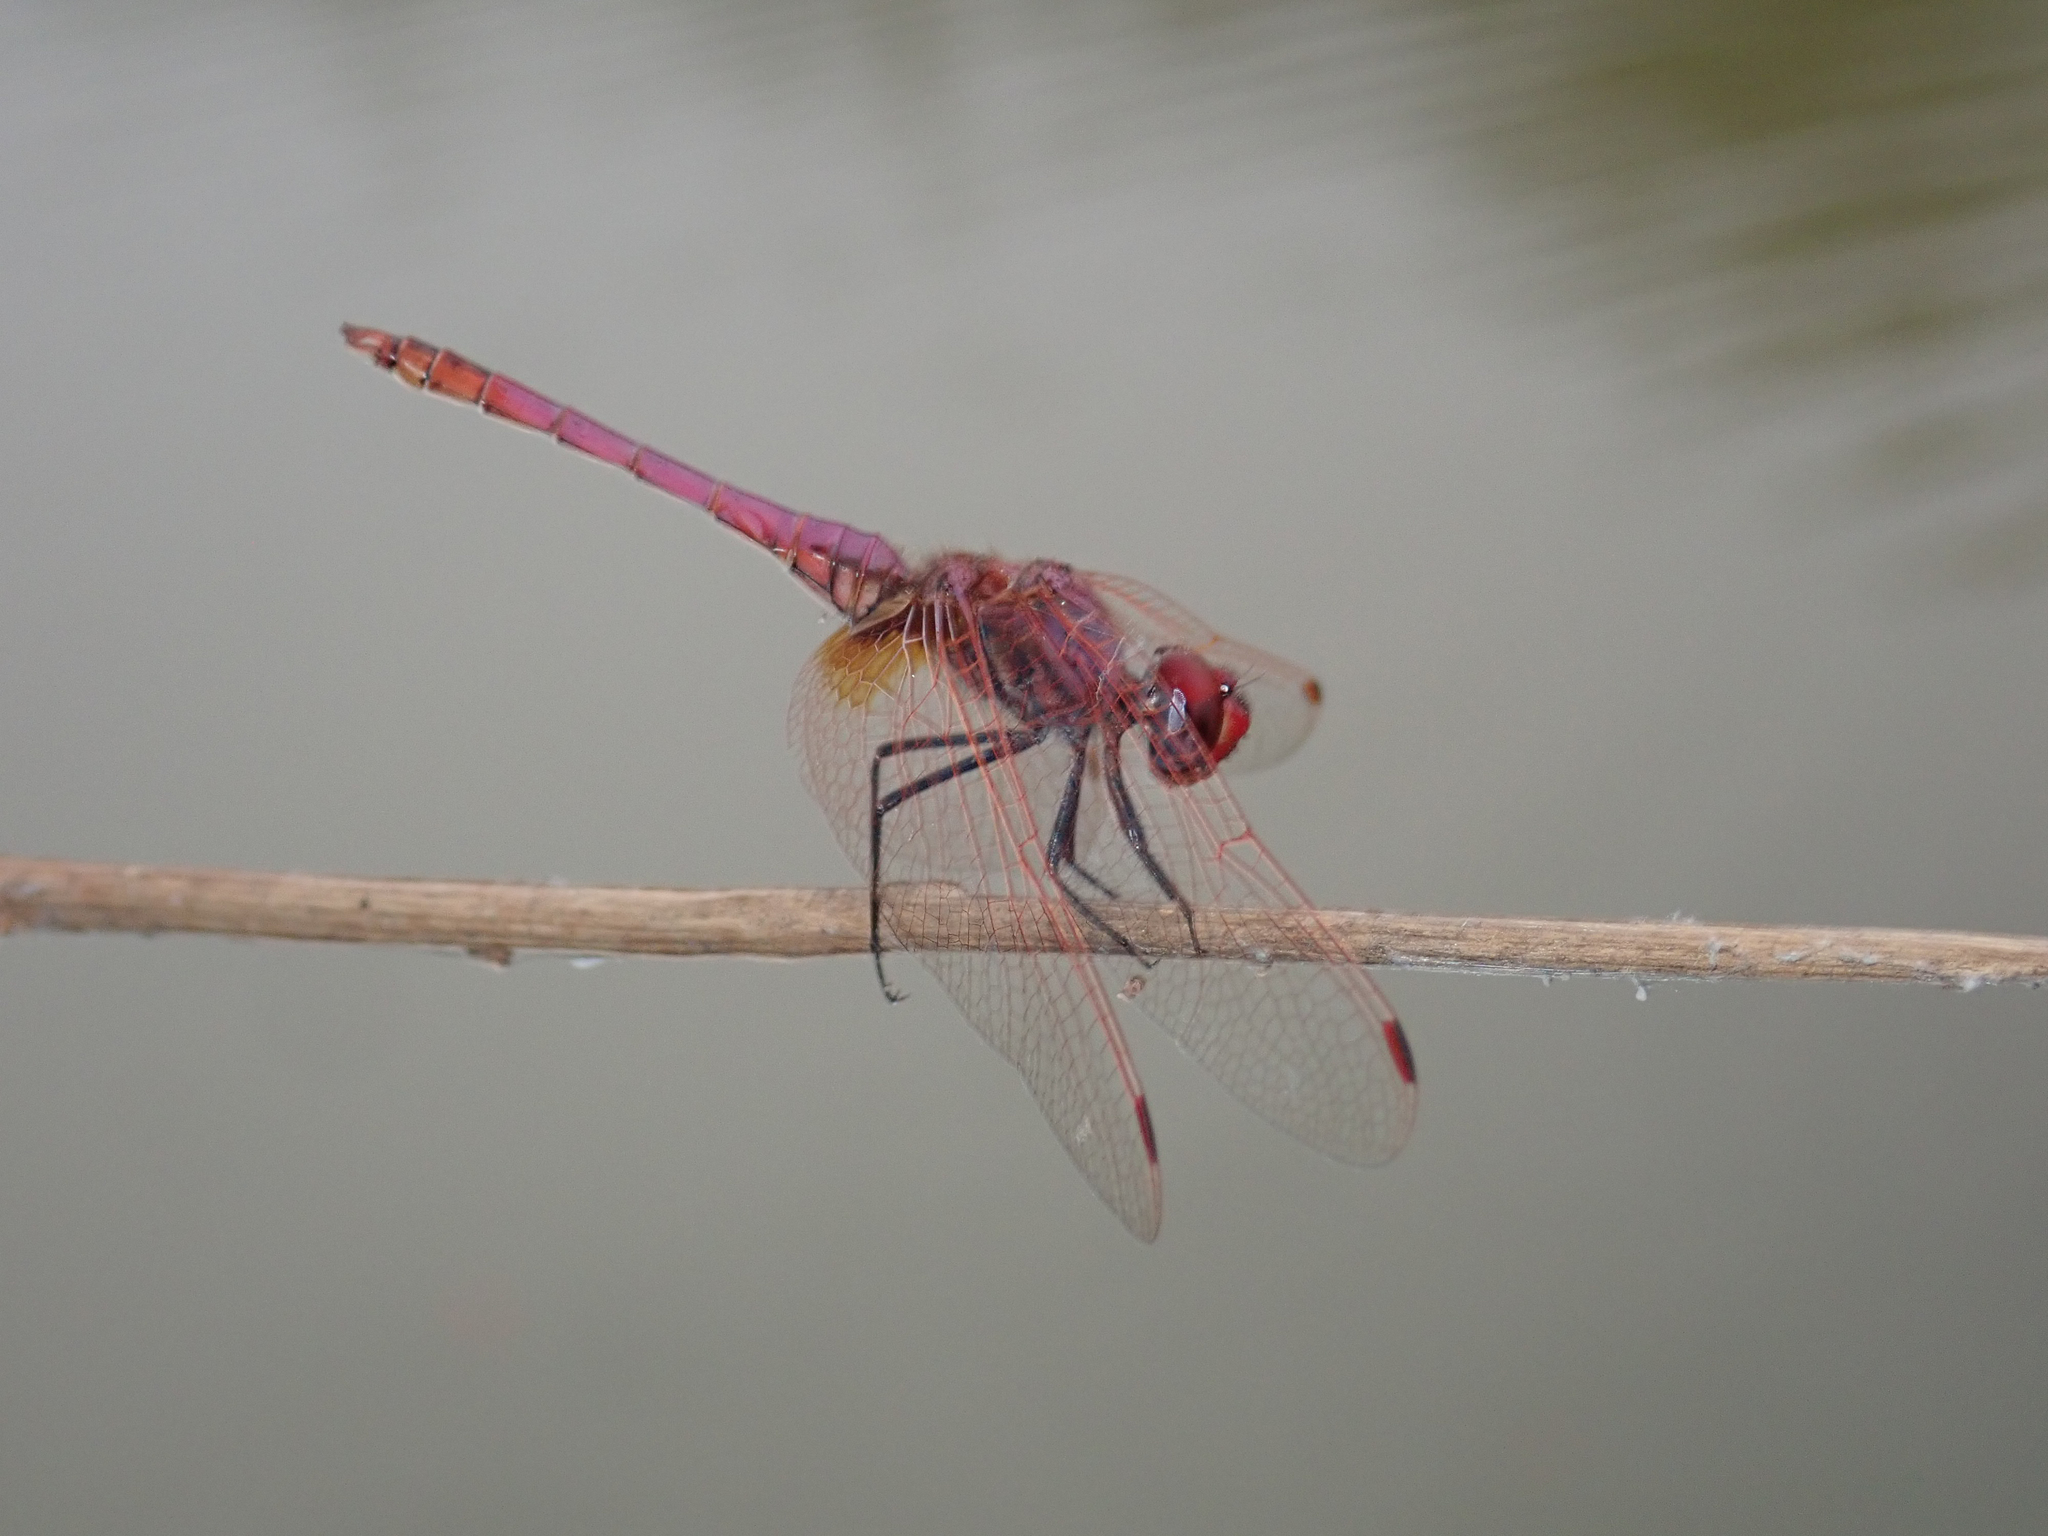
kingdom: Animalia
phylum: Arthropoda
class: Insecta
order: Odonata
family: Libellulidae
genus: Trithemis
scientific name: Trithemis annulata
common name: Violet dropwing
